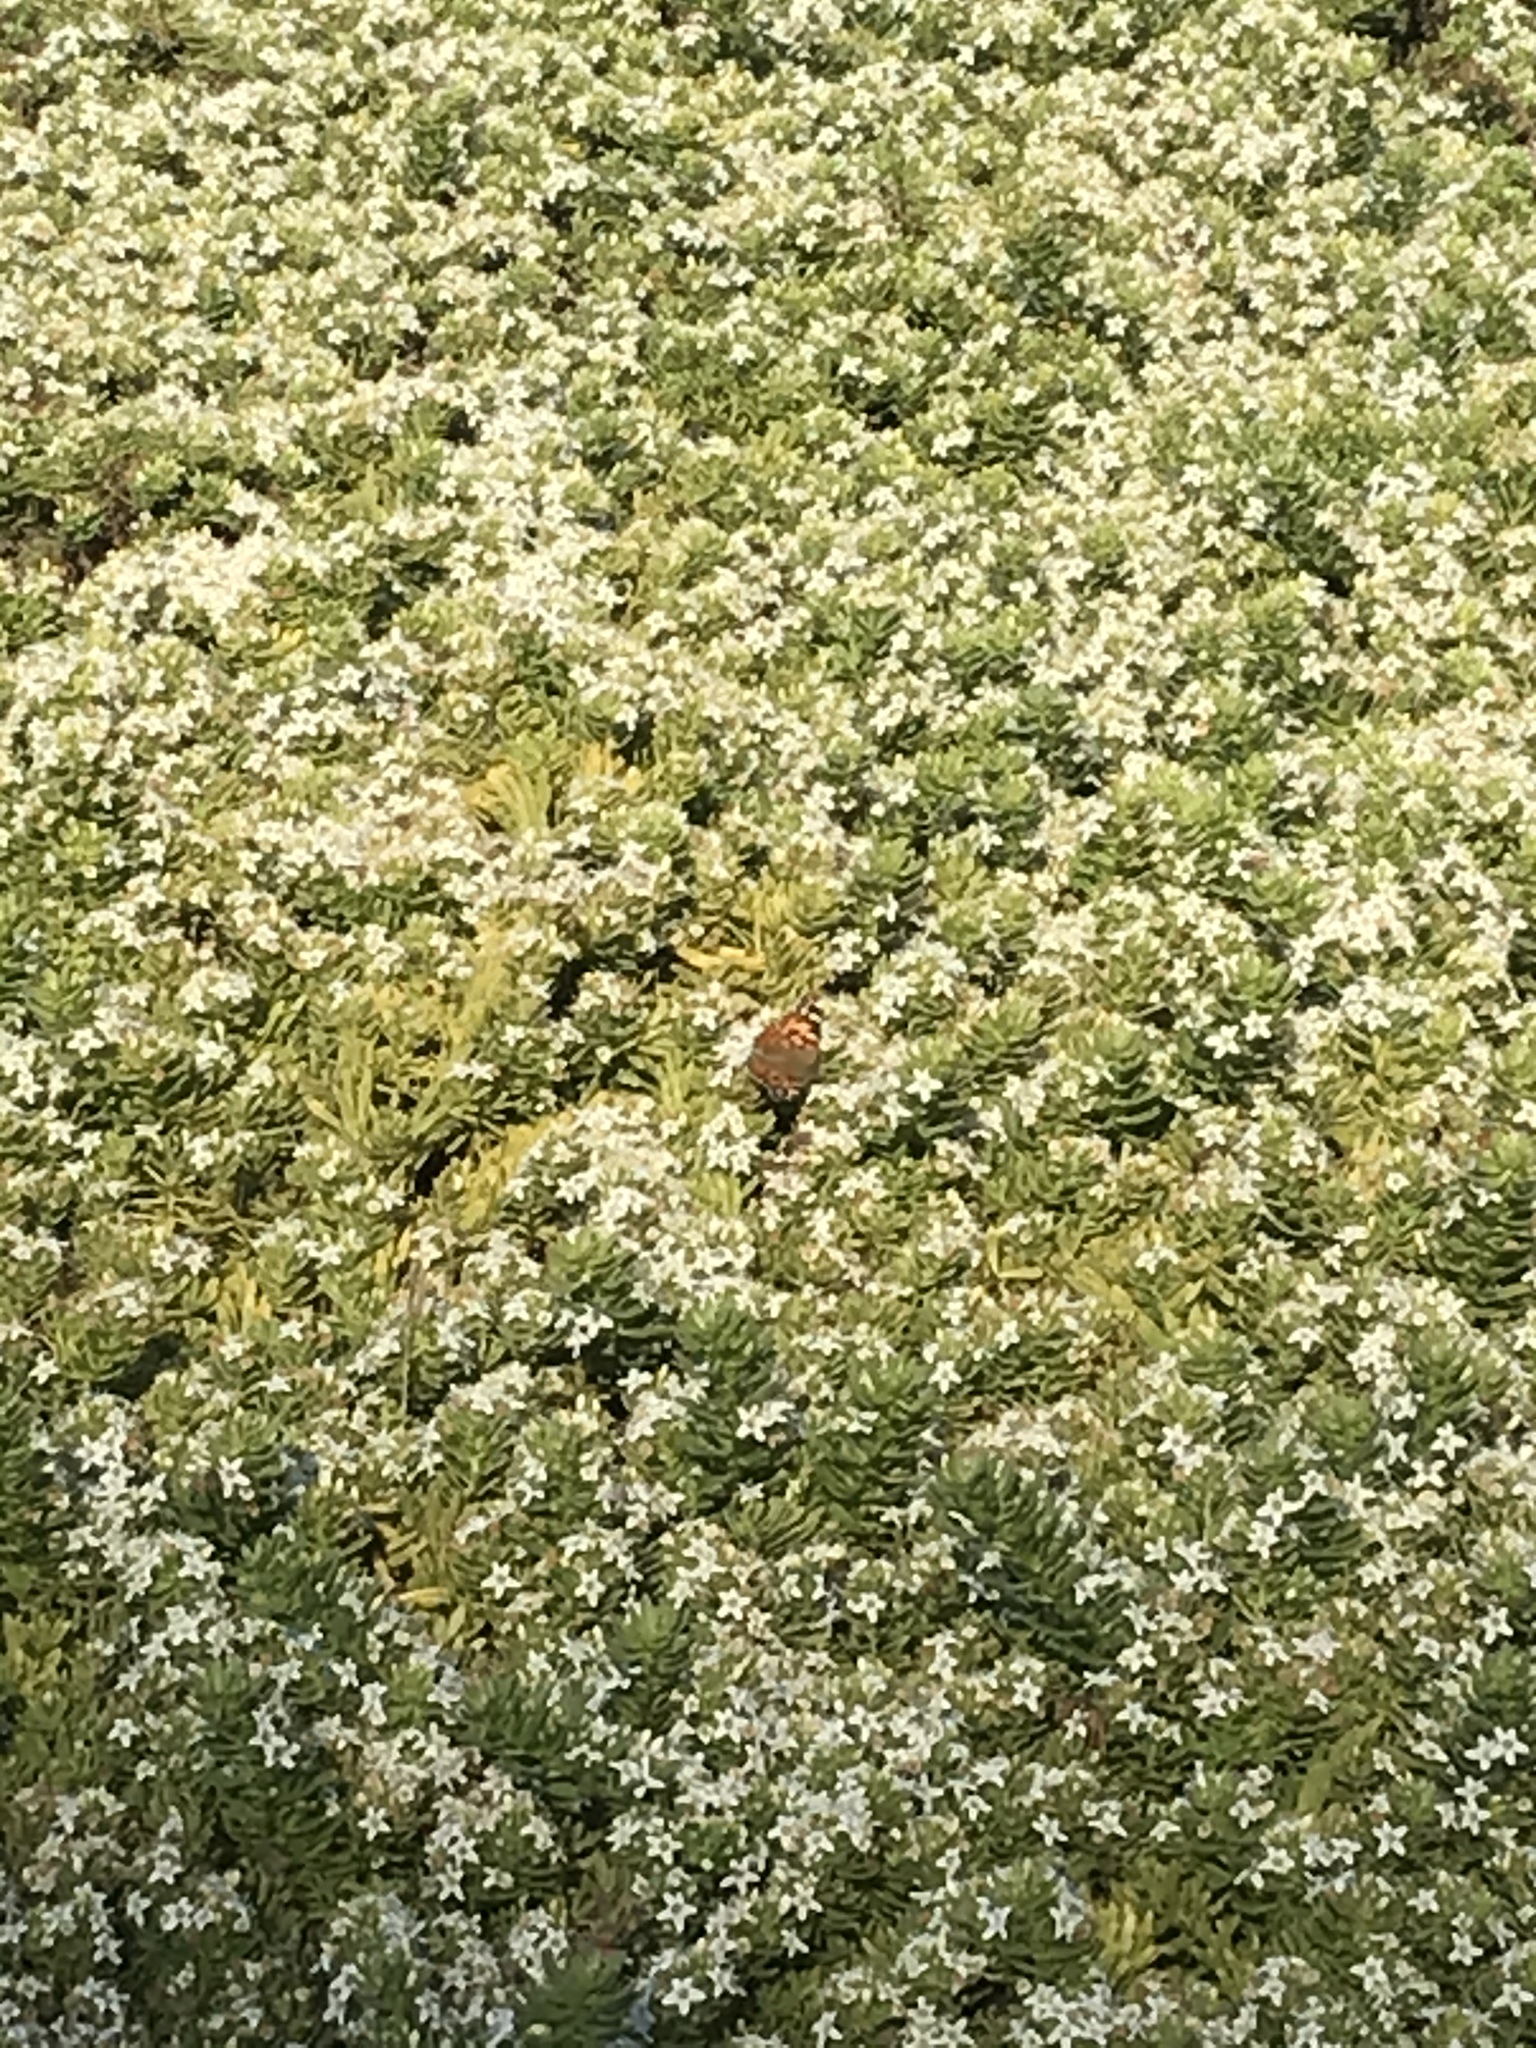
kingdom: Animalia
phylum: Arthropoda
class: Insecta
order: Lepidoptera
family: Nymphalidae
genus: Vanessa
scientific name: Vanessa cardui
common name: Painted lady
